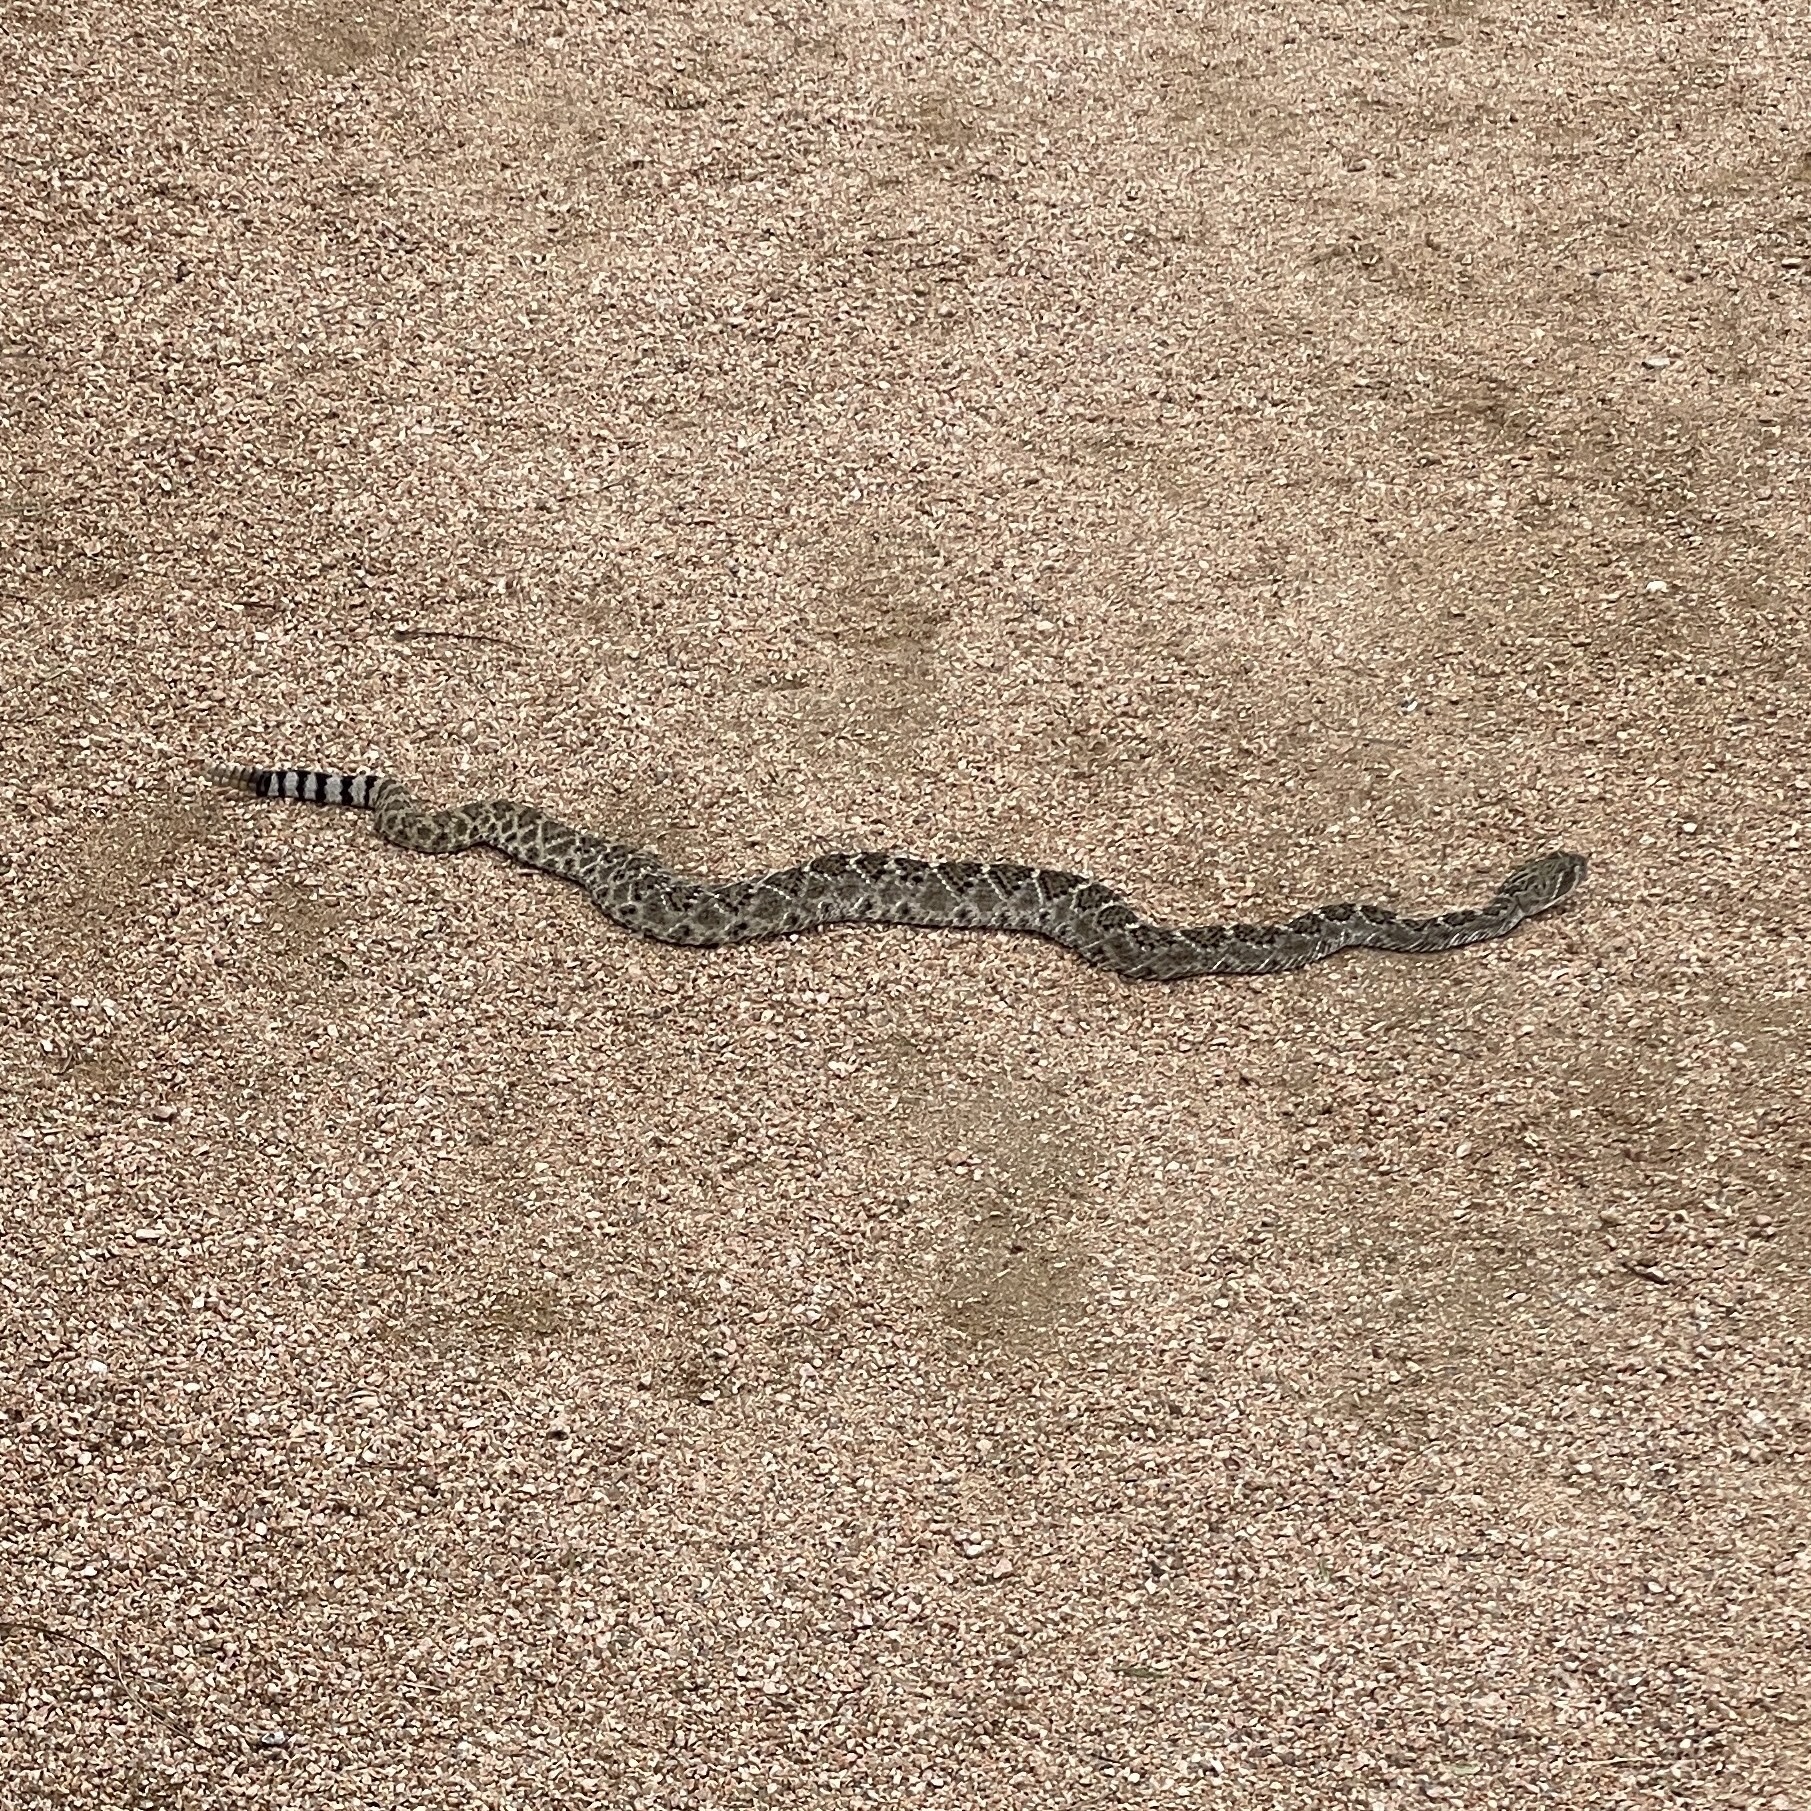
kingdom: Animalia
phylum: Chordata
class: Squamata
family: Viperidae
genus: Crotalus
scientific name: Crotalus atrox
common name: Western diamond-backed rattlesnake
